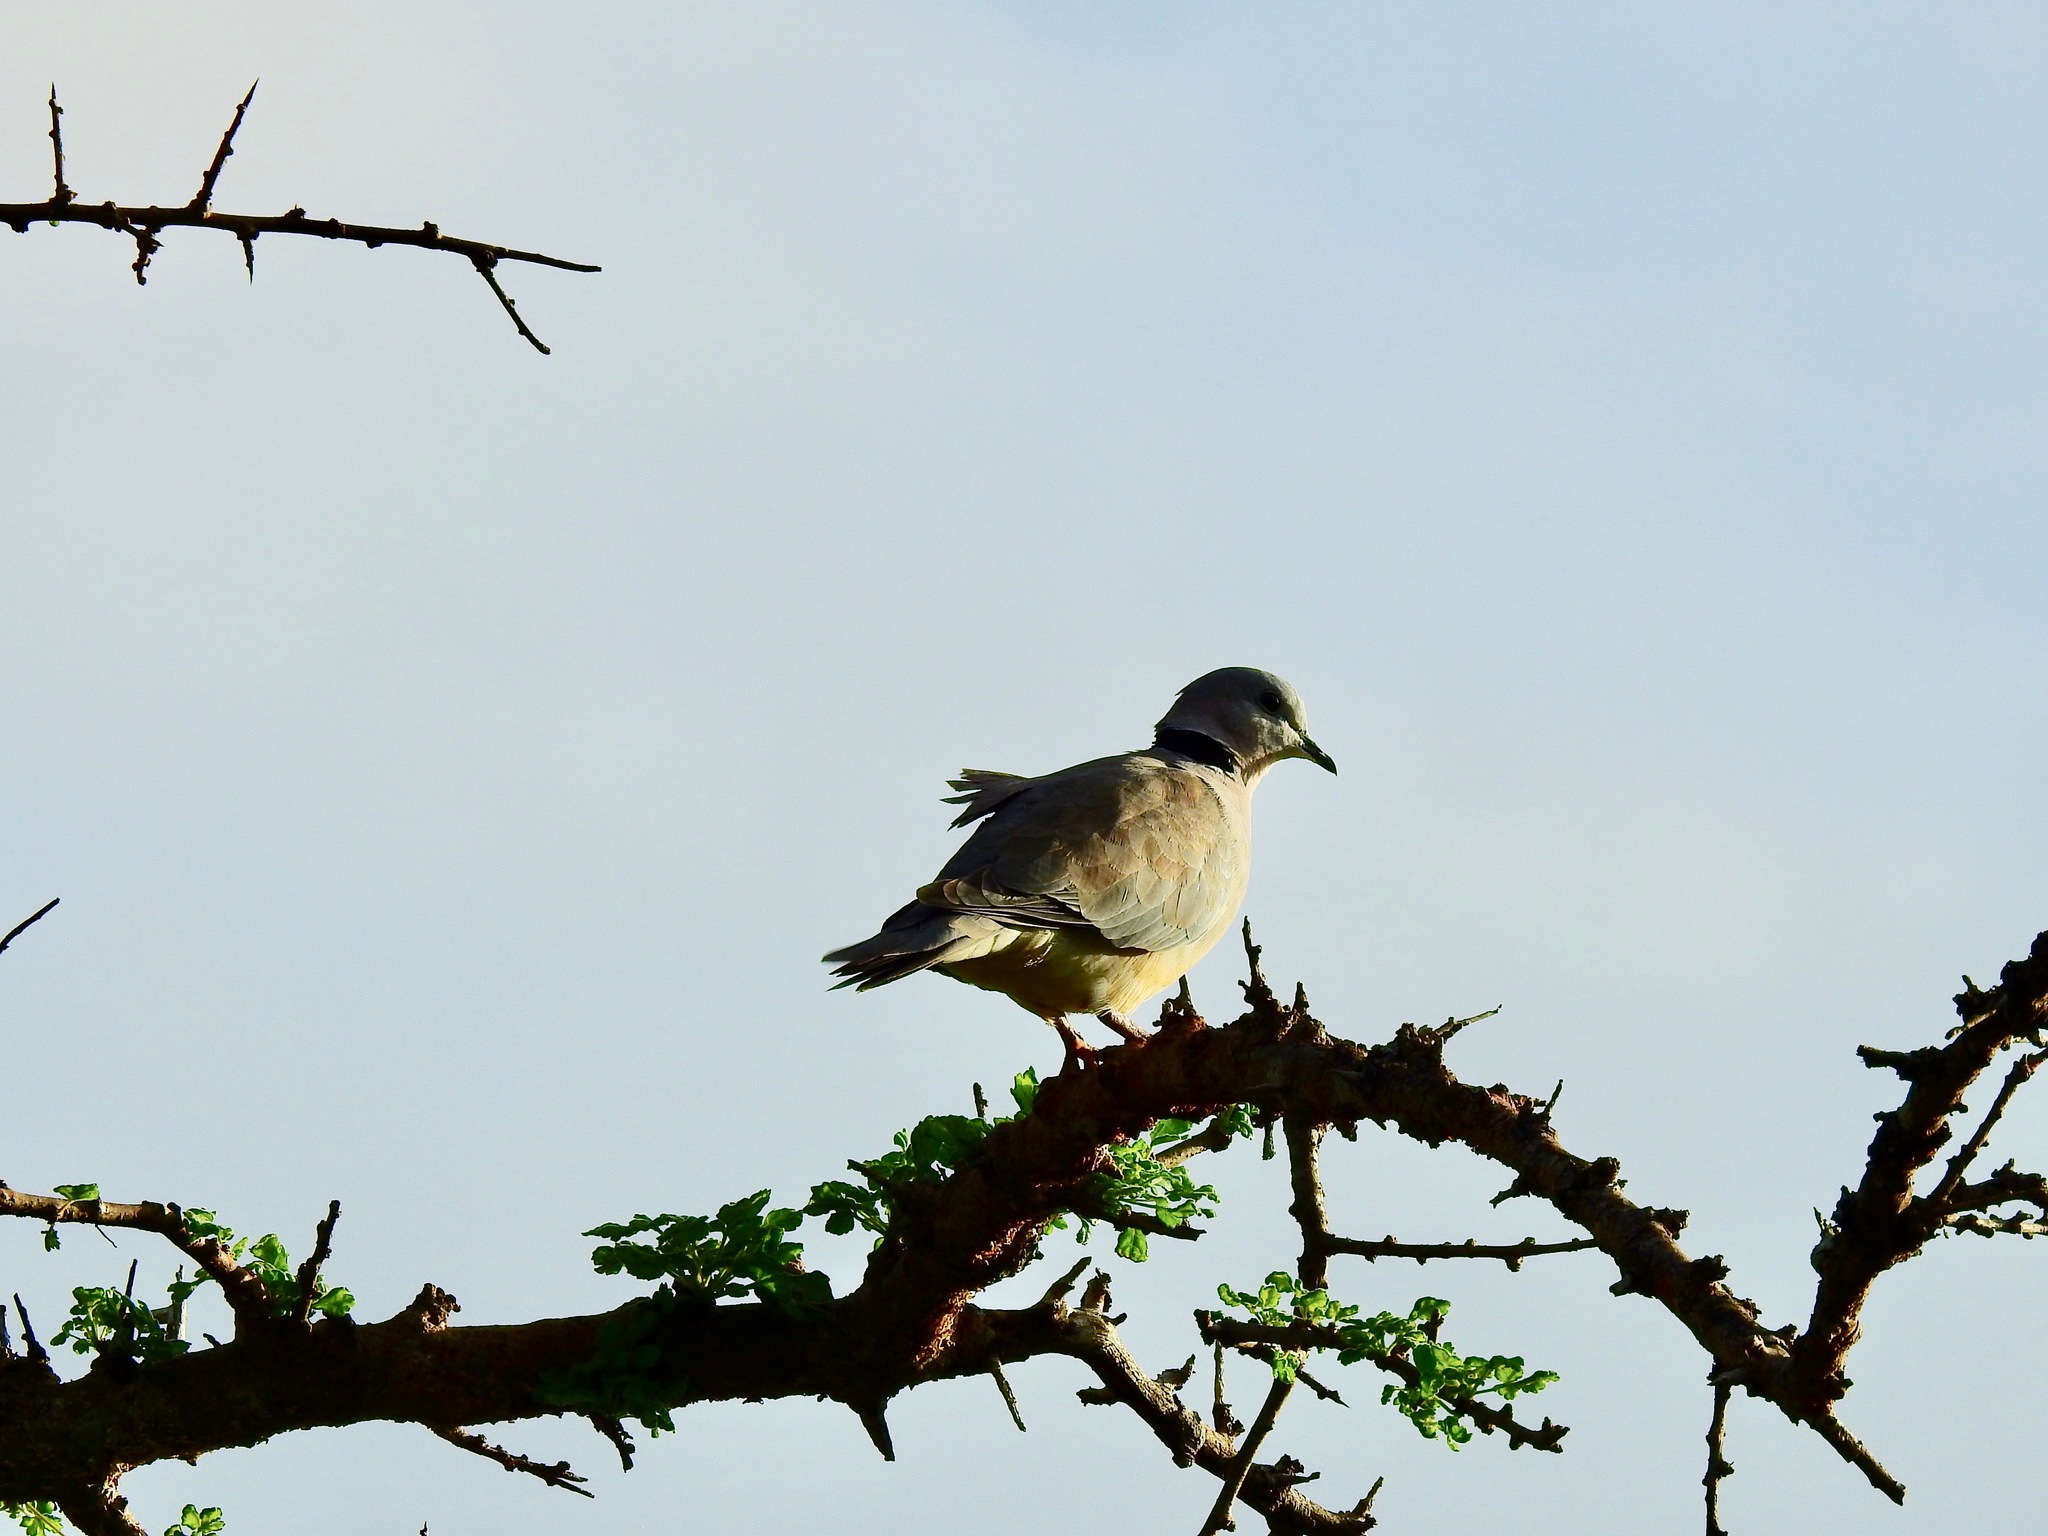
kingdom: Animalia
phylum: Chordata
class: Aves
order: Columbiformes
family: Columbidae
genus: Streptopelia
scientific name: Streptopelia capicola
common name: Ring-necked dove
